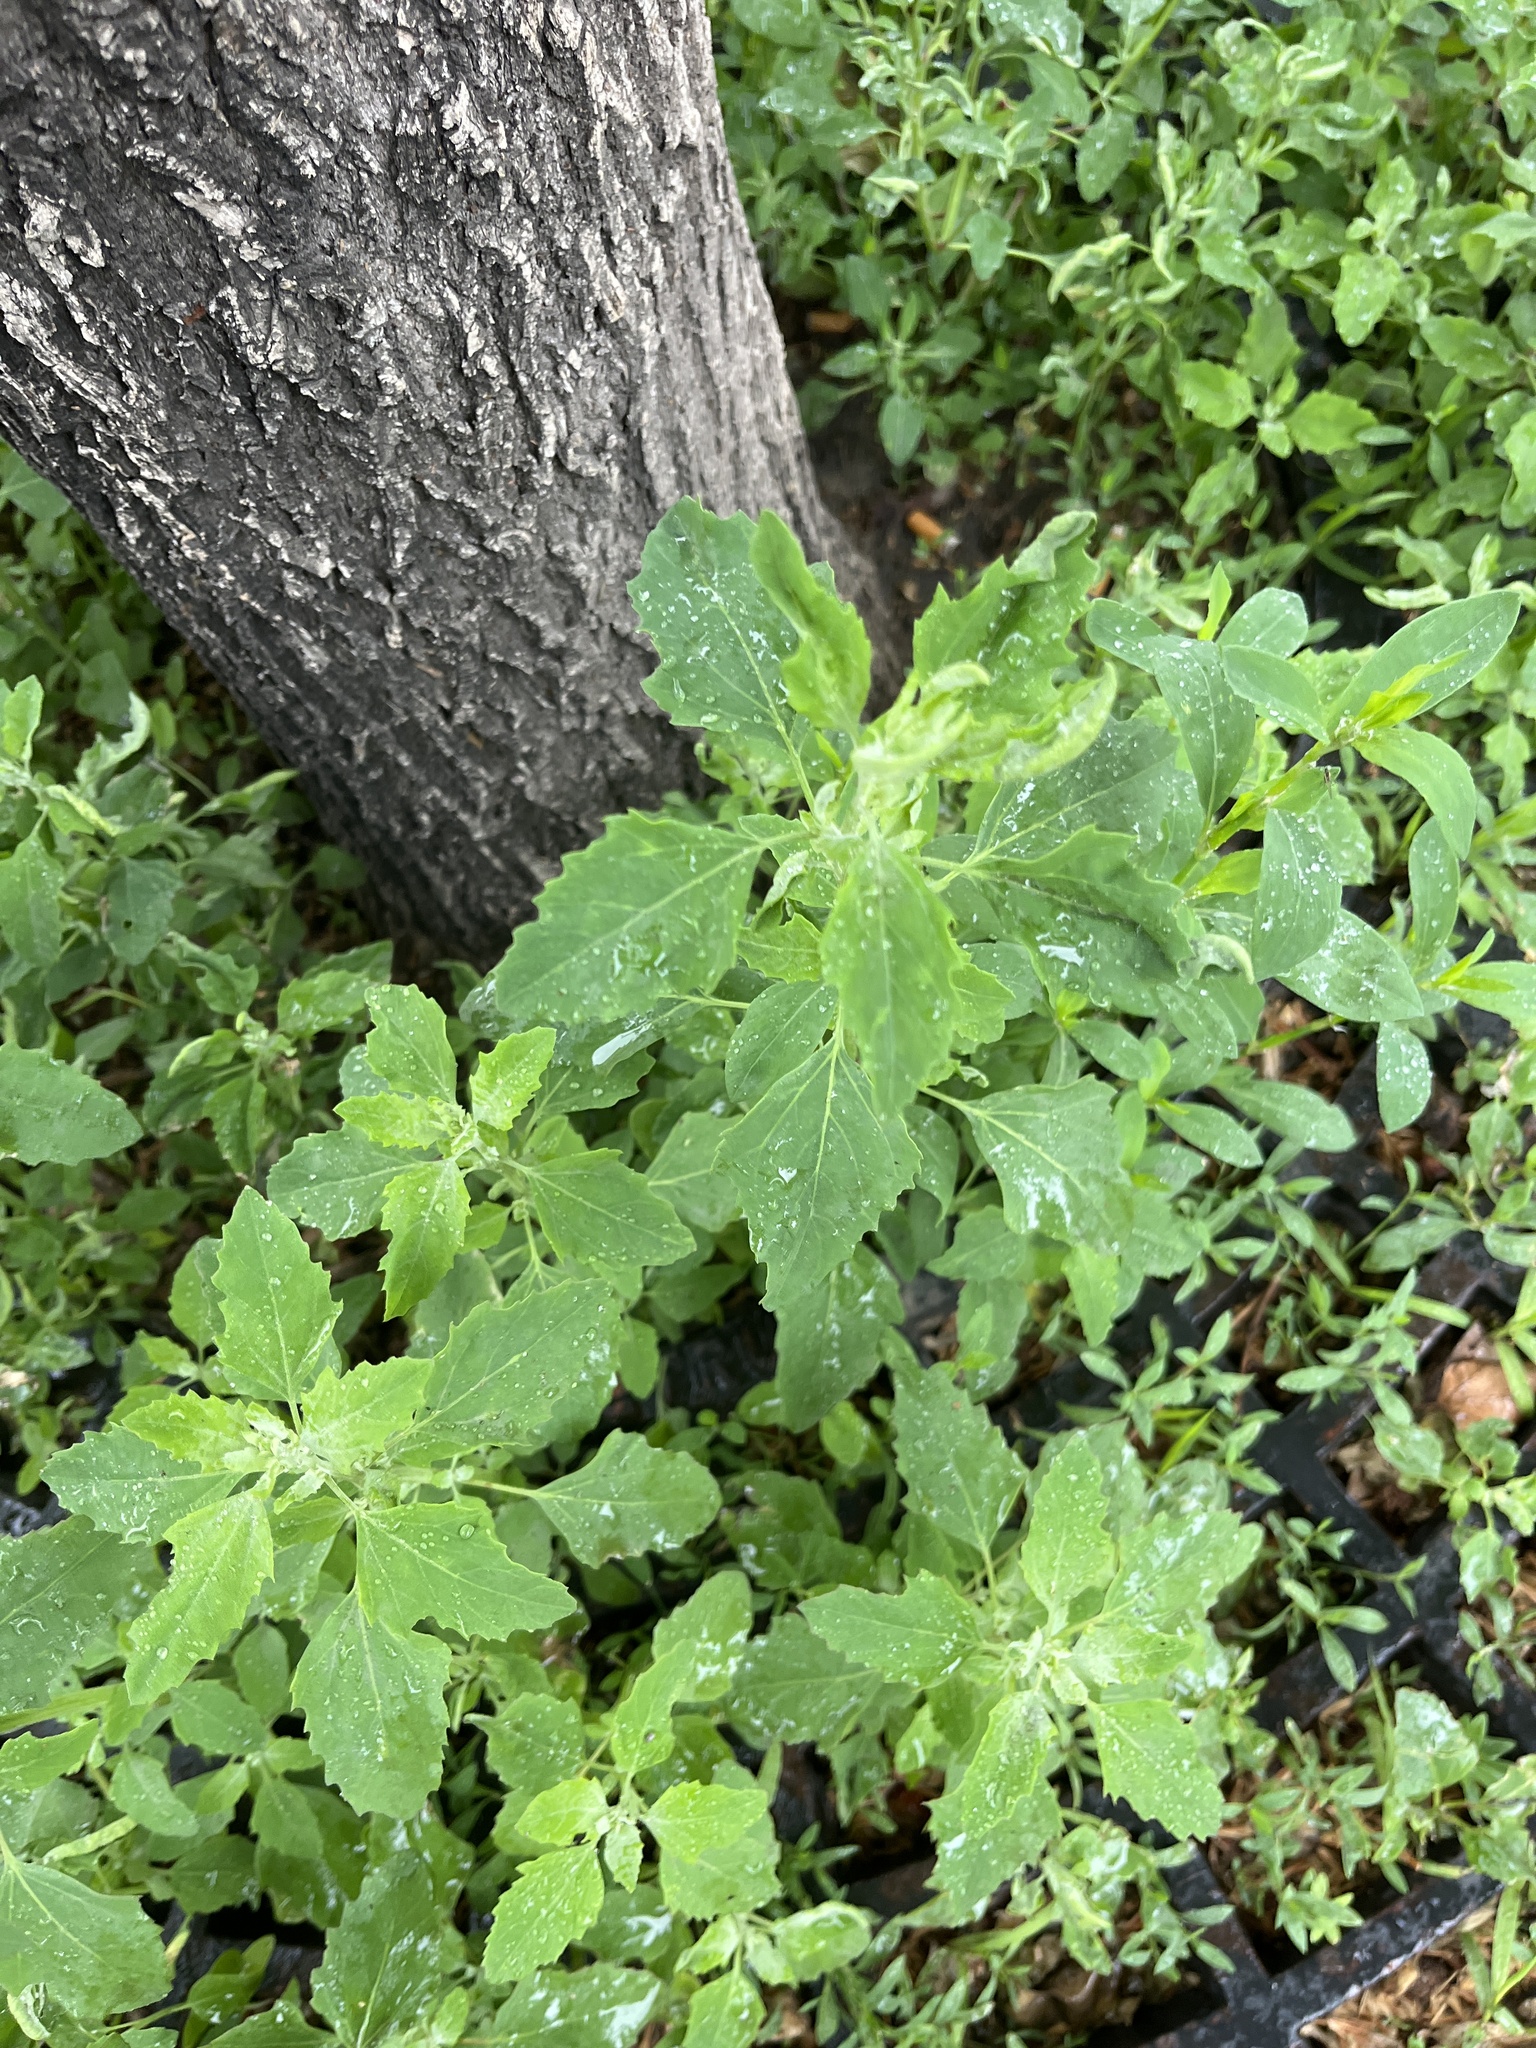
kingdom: Plantae
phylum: Tracheophyta
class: Magnoliopsida
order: Caryophyllales
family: Amaranthaceae
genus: Chenopodium
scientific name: Chenopodium album
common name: Fat-hen
